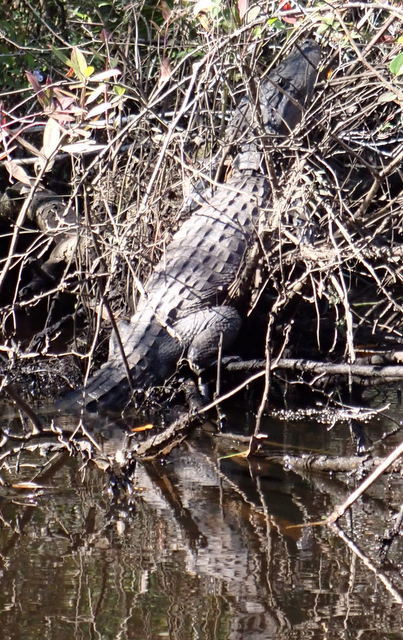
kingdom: Animalia
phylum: Chordata
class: Crocodylia
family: Alligatoridae
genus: Alligator
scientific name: Alligator mississippiensis
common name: American alligator
